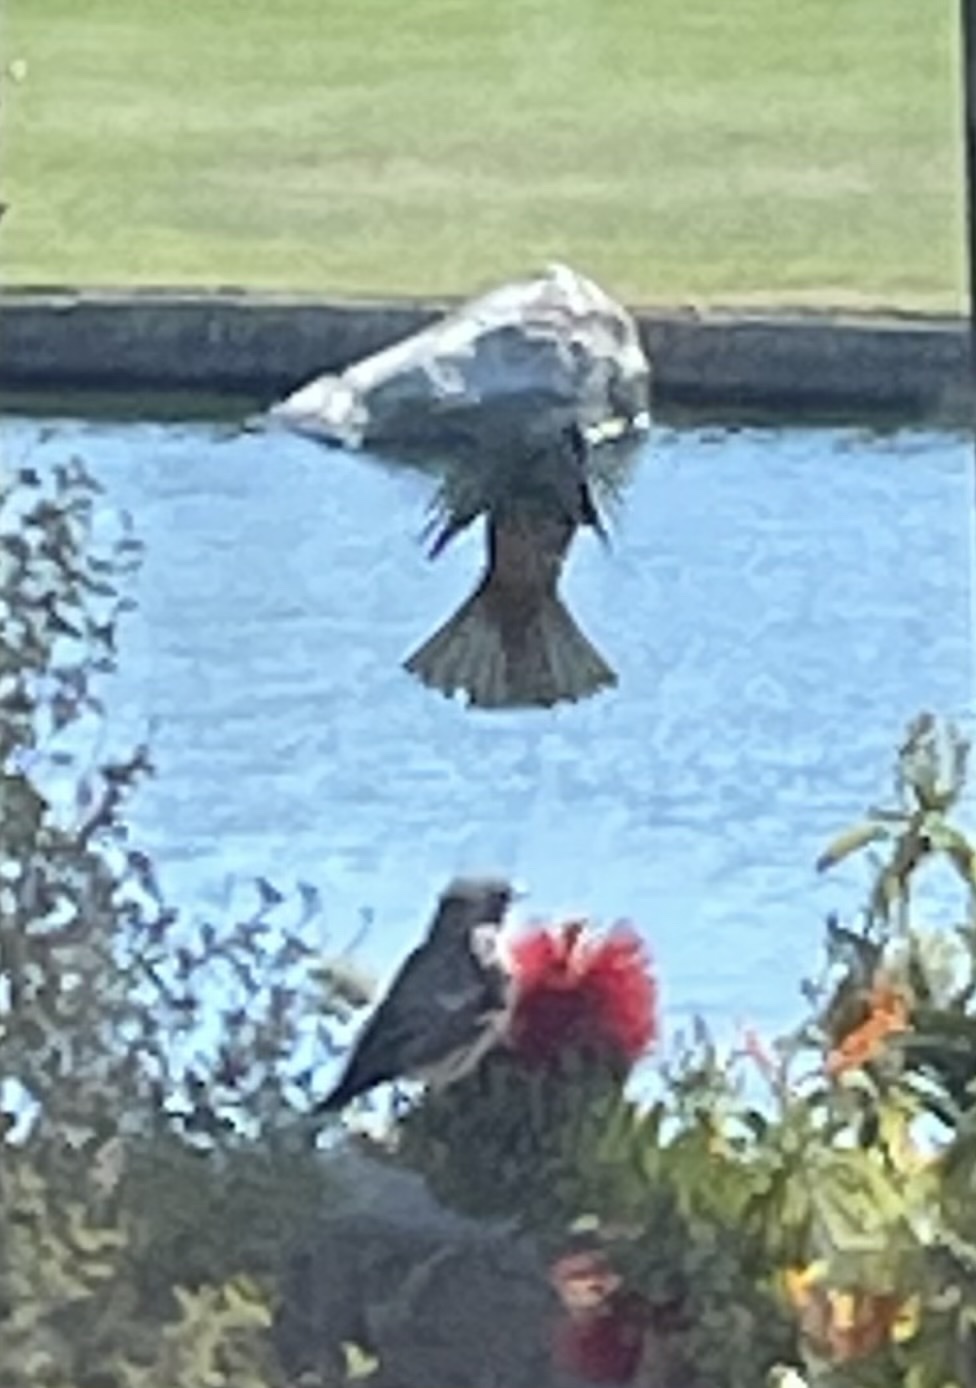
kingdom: Animalia
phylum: Chordata
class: Aves
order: Passeriformes
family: Parulidae
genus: Setophaga
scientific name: Setophaga coronata
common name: Myrtle warbler
